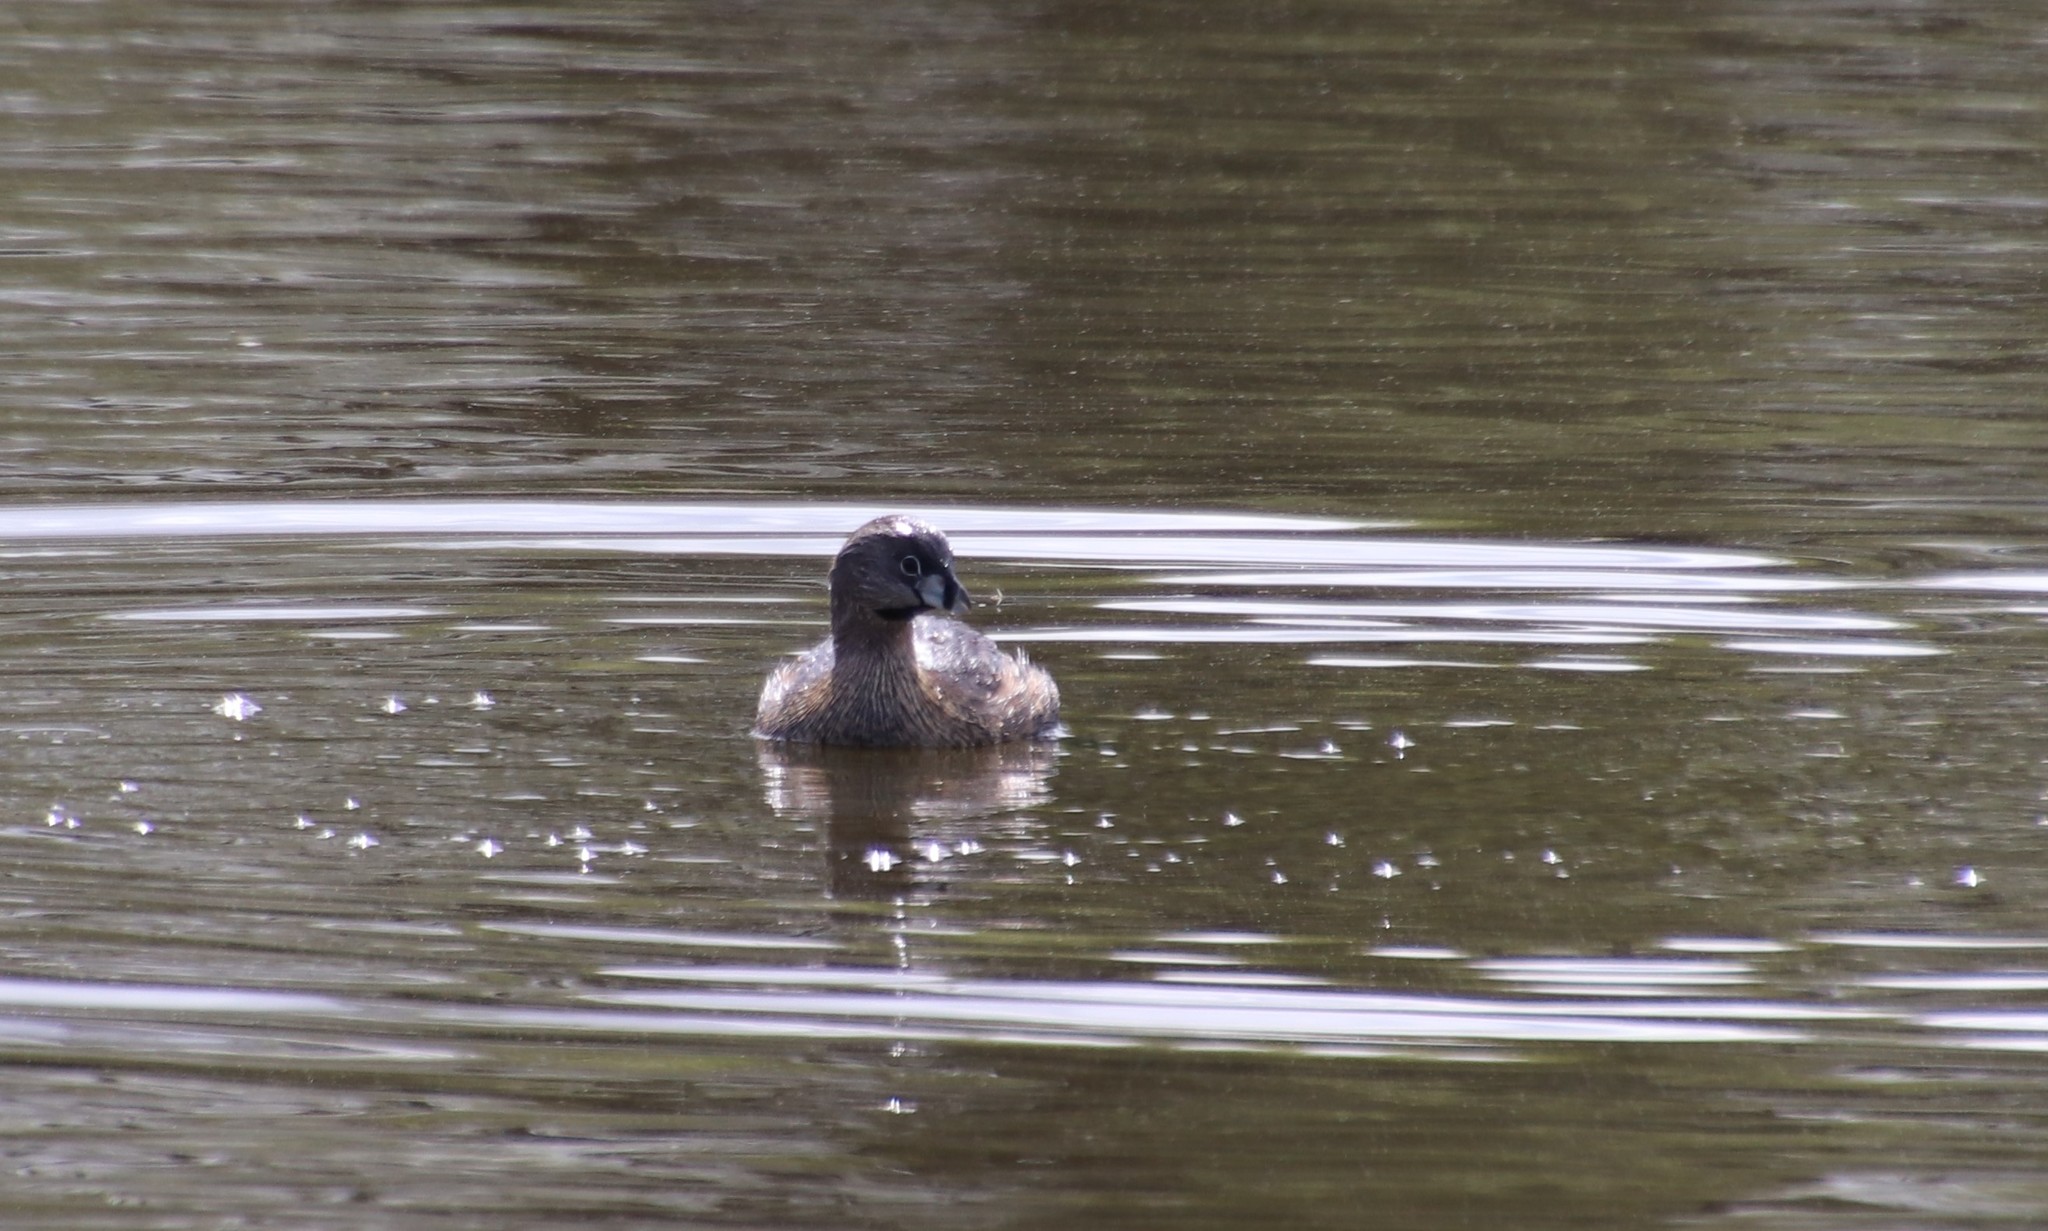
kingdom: Animalia
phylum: Chordata
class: Aves
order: Podicipediformes
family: Podicipedidae
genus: Podilymbus
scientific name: Podilymbus podiceps
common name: Pied-billed grebe
